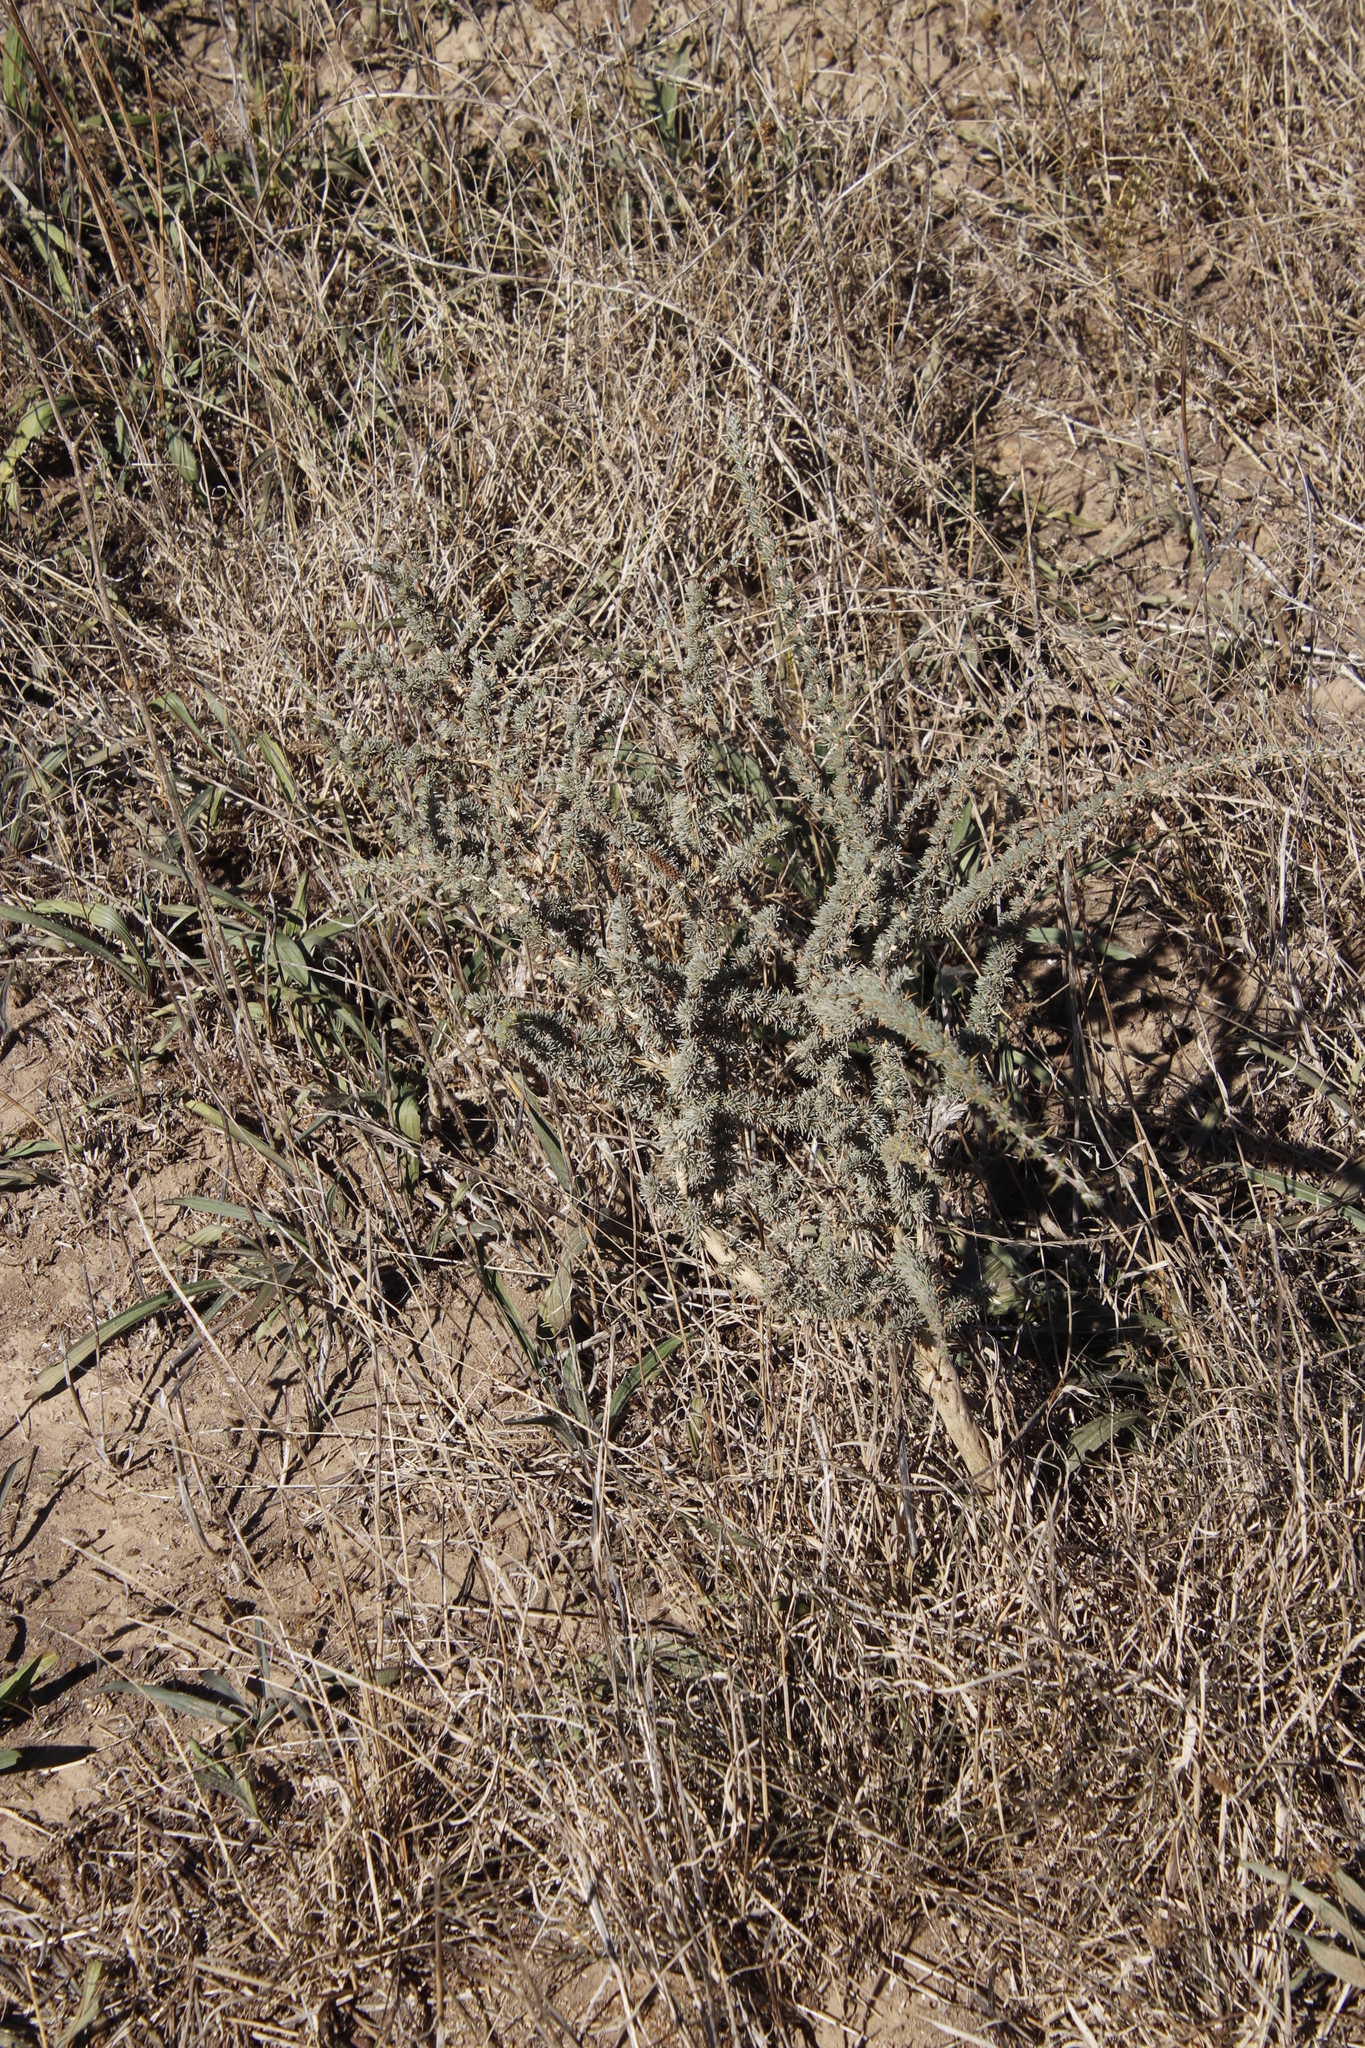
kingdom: Plantae
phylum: Tracheophyta
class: Magnoliopsida
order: Fabales
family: Fabaceae
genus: Aspalathus
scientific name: Aspalathus acanthophylla
